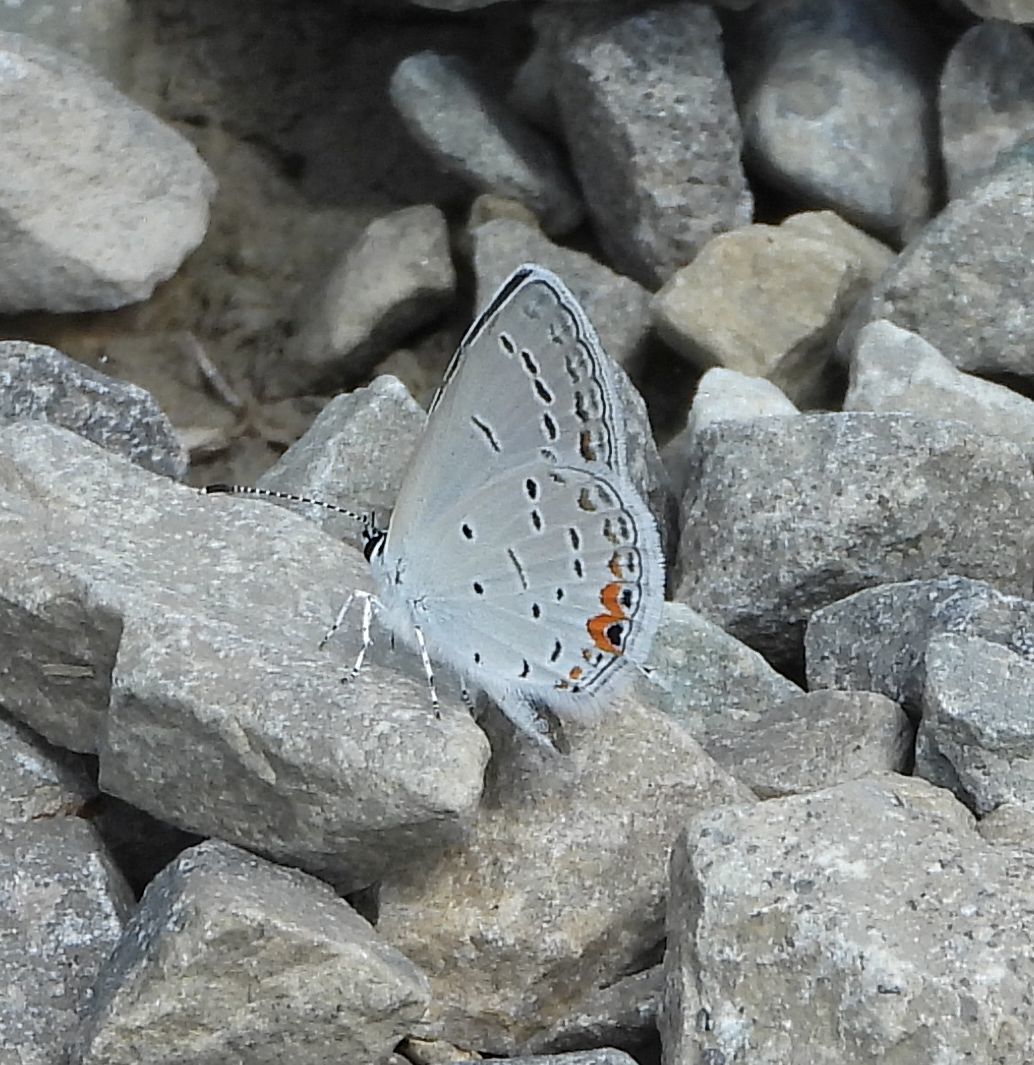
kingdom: Animalia
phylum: Arthropoda
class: Insecta
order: Lepidoptera
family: Lycaenidae
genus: Elkalyce
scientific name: Elkalyce comyntas
